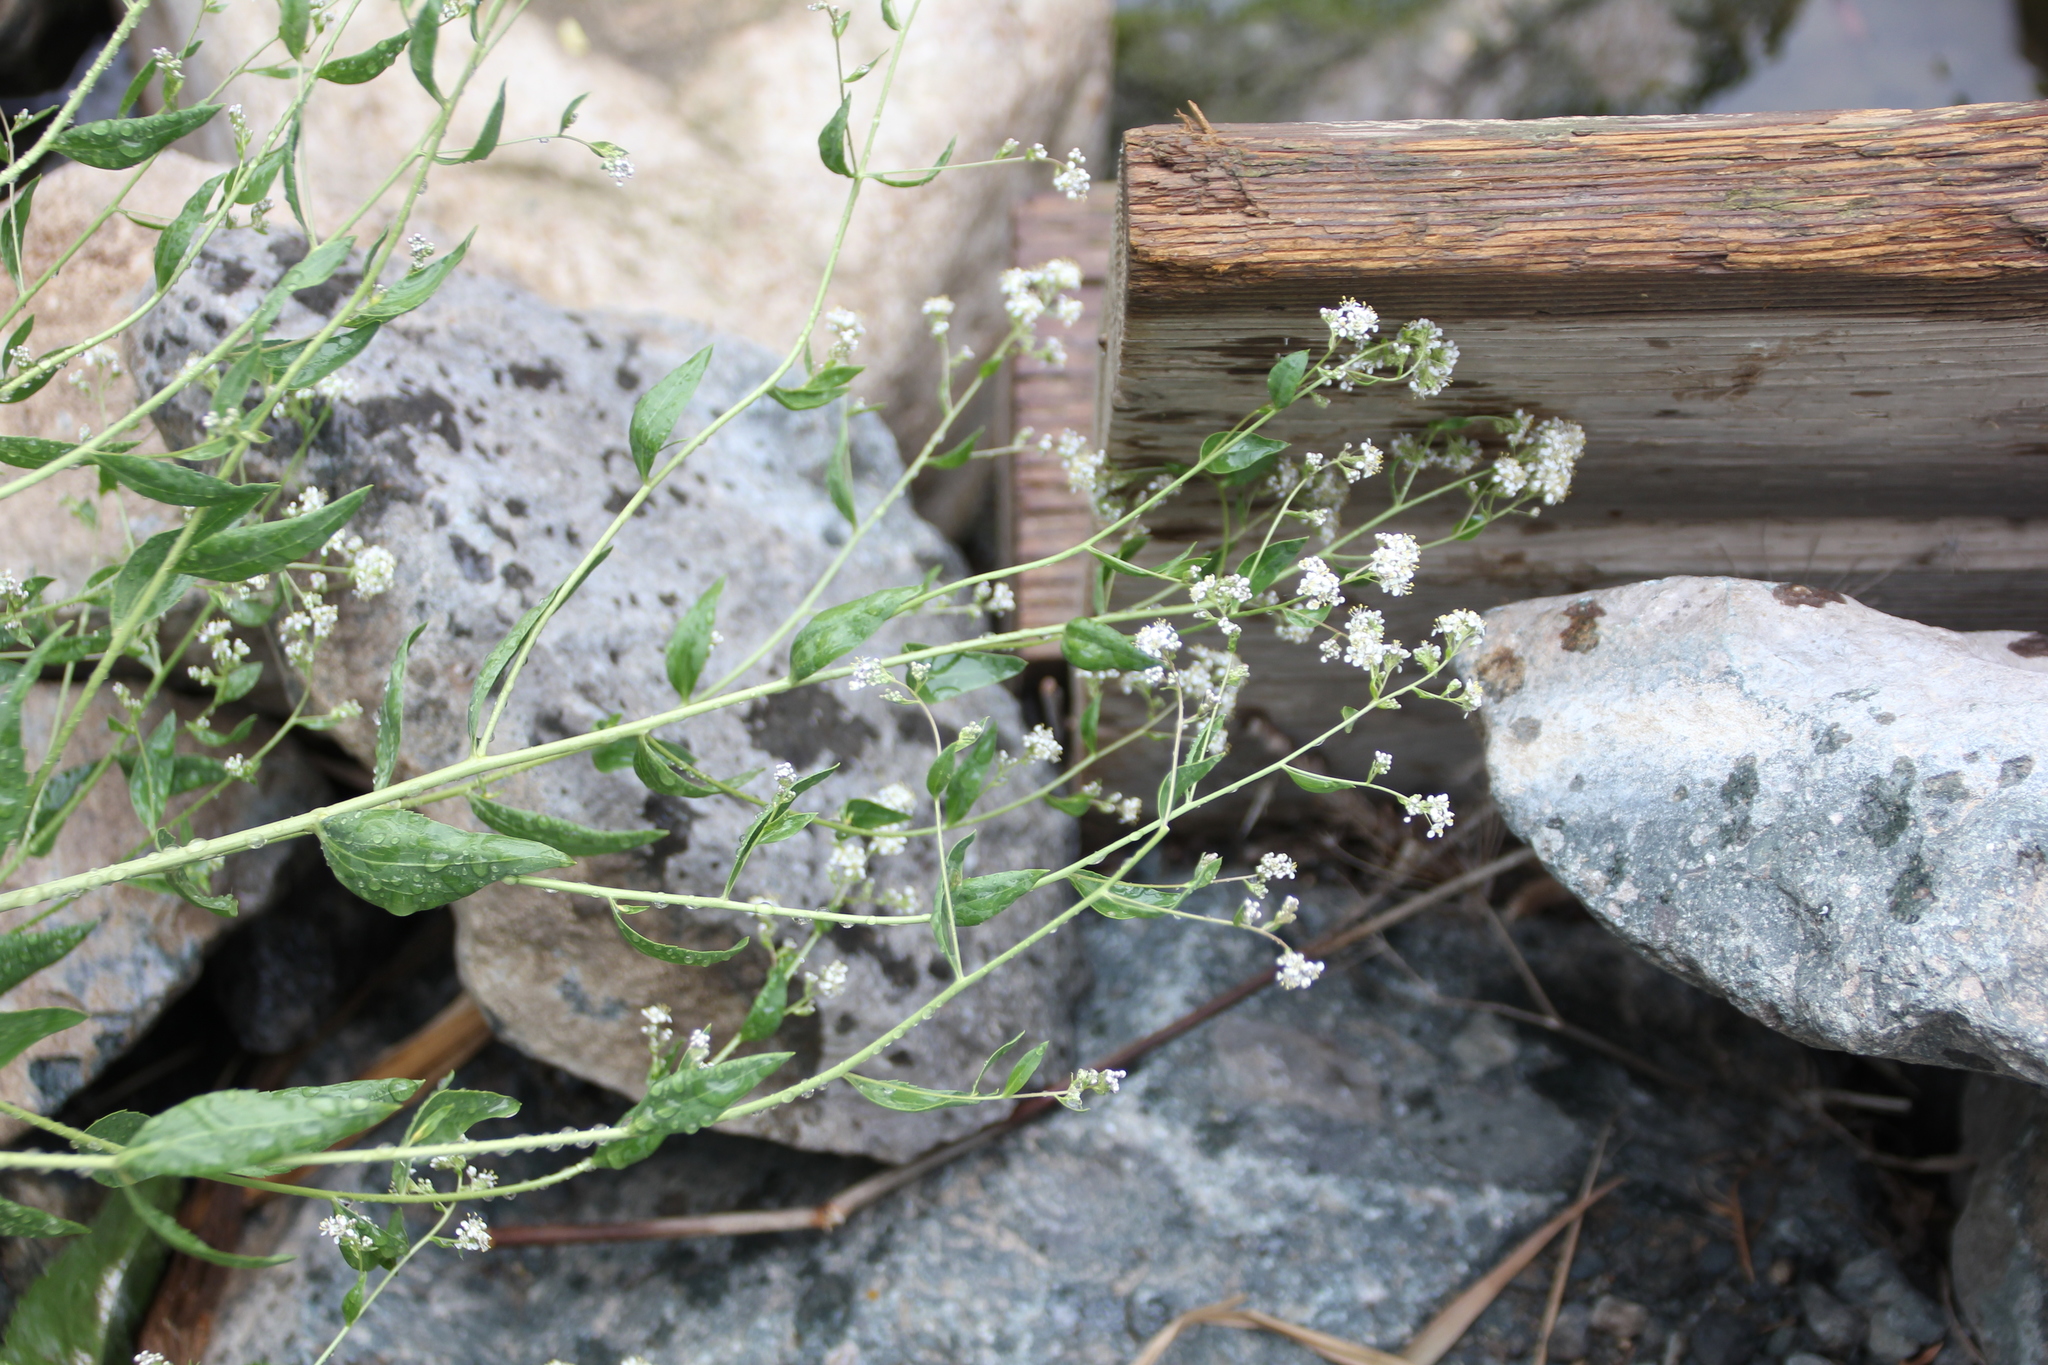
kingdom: Plantae
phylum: Tracheophyta
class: Magnoliopsida
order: Brassicales
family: Brassicaceae
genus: Lepidium
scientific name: Lepidium latifolium
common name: Dittander
